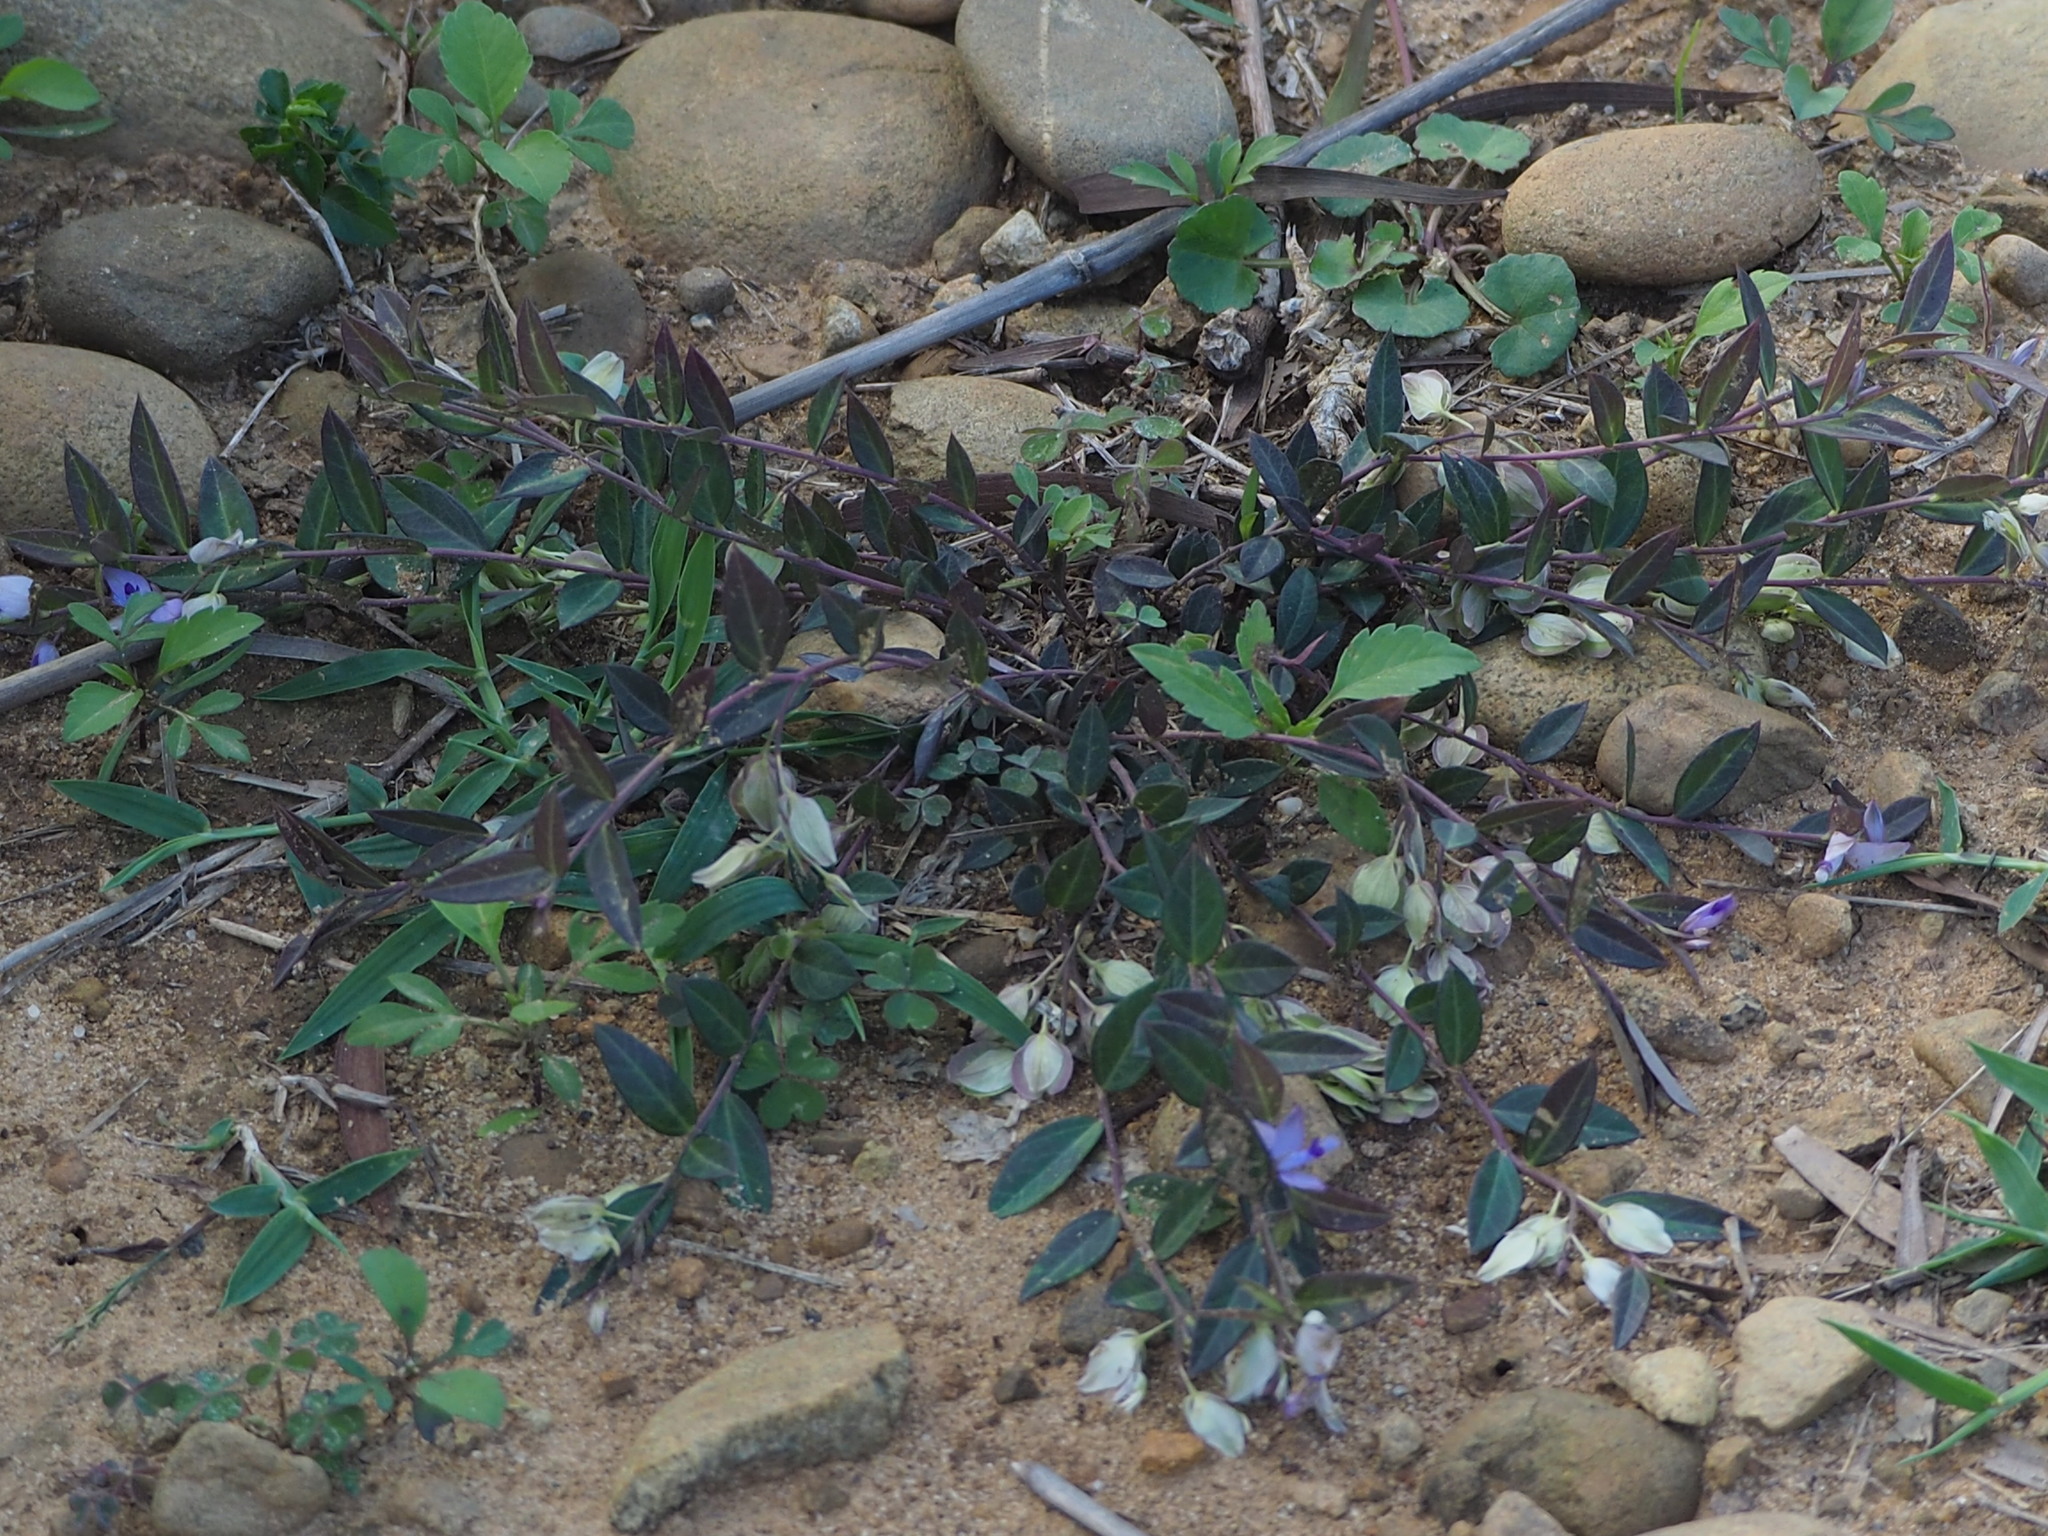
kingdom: Plantae
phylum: Tracheophyta
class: Magnoliopsida
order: Fabales
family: Polygalaceae
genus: Polygala
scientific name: Polygala japonica
